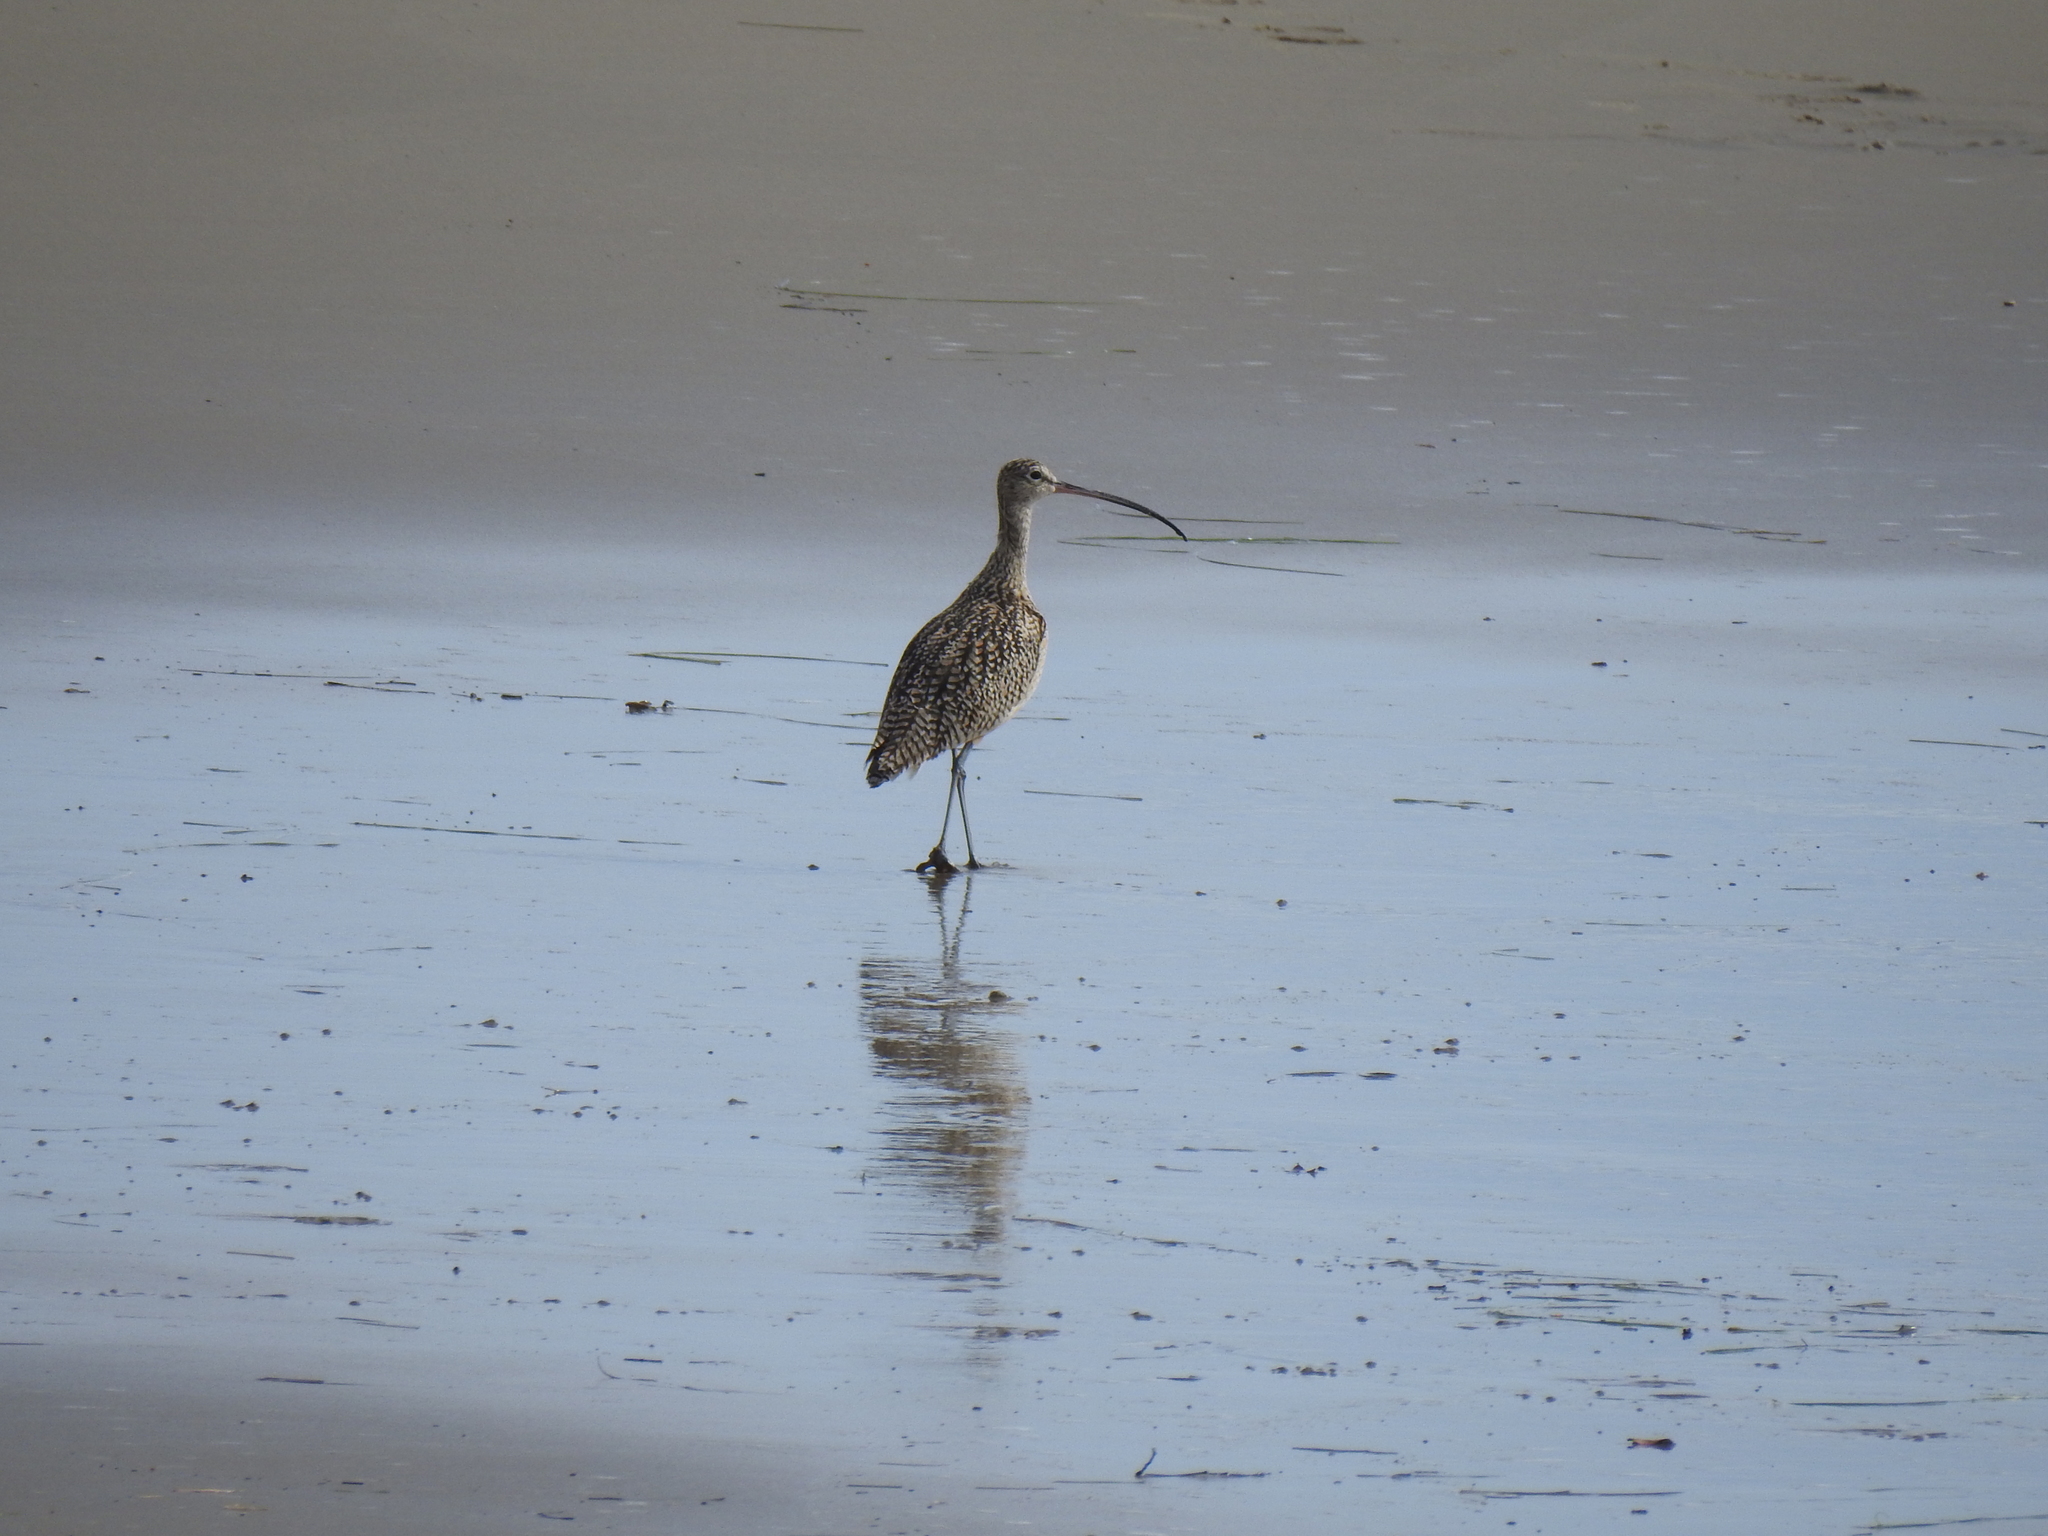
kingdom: Animalia
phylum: Chordata
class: Aves
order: Charadriiformes
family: Scolopacidae
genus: Numenius
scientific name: Numenius americanus
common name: Long-billed curlew
